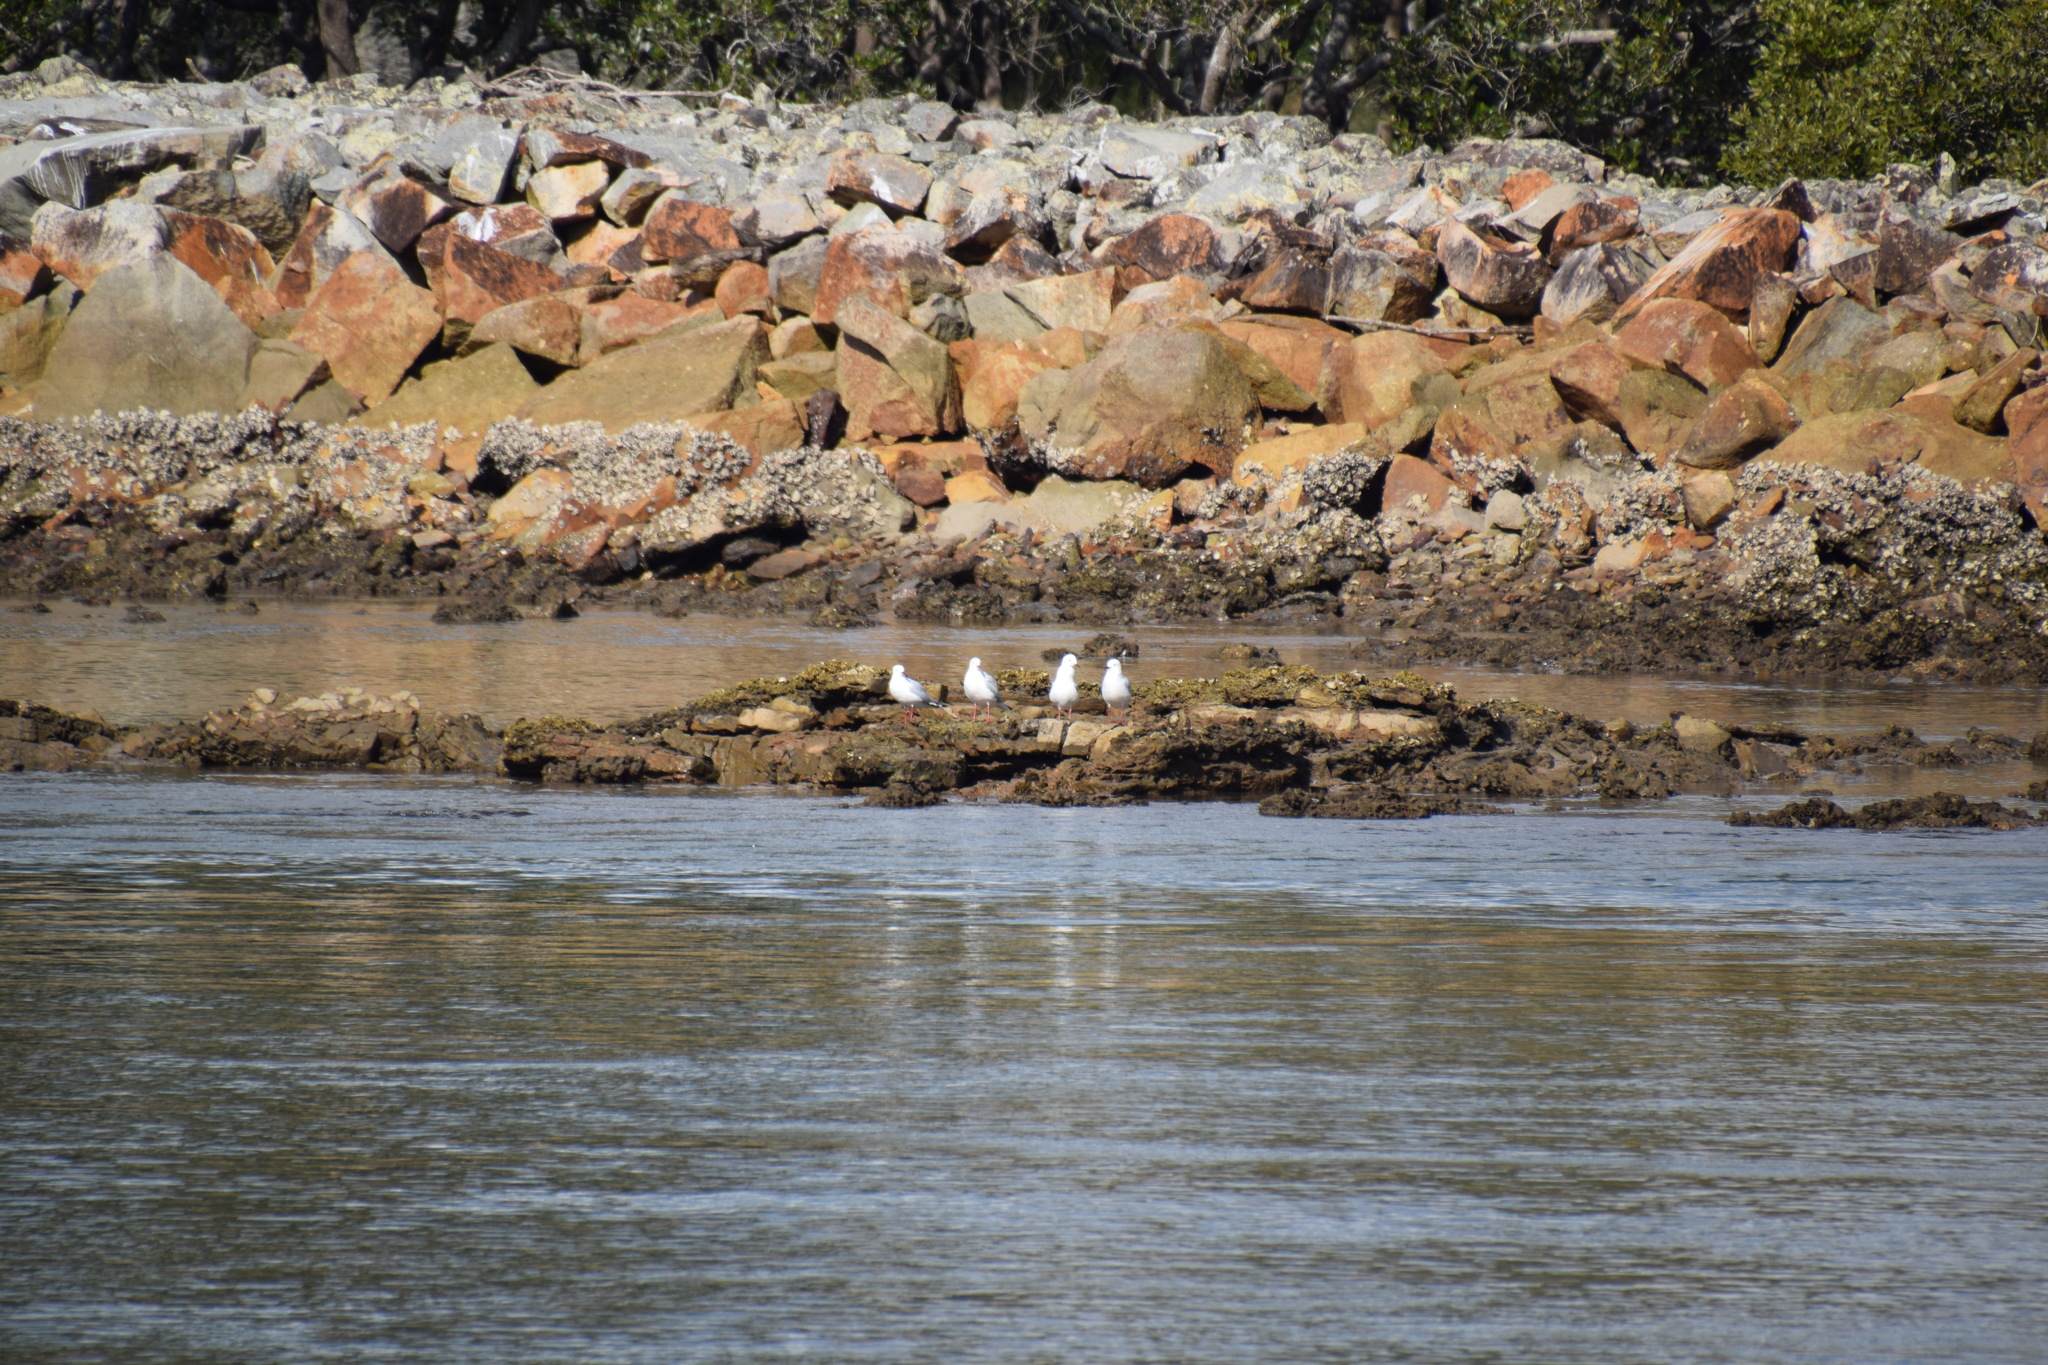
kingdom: Animalia
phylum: Chordata
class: Aves
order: Charadriiformes
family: Laridae
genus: Chroicocephalus
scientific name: Chroicocephalus novaehollandiae
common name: Silver gull
